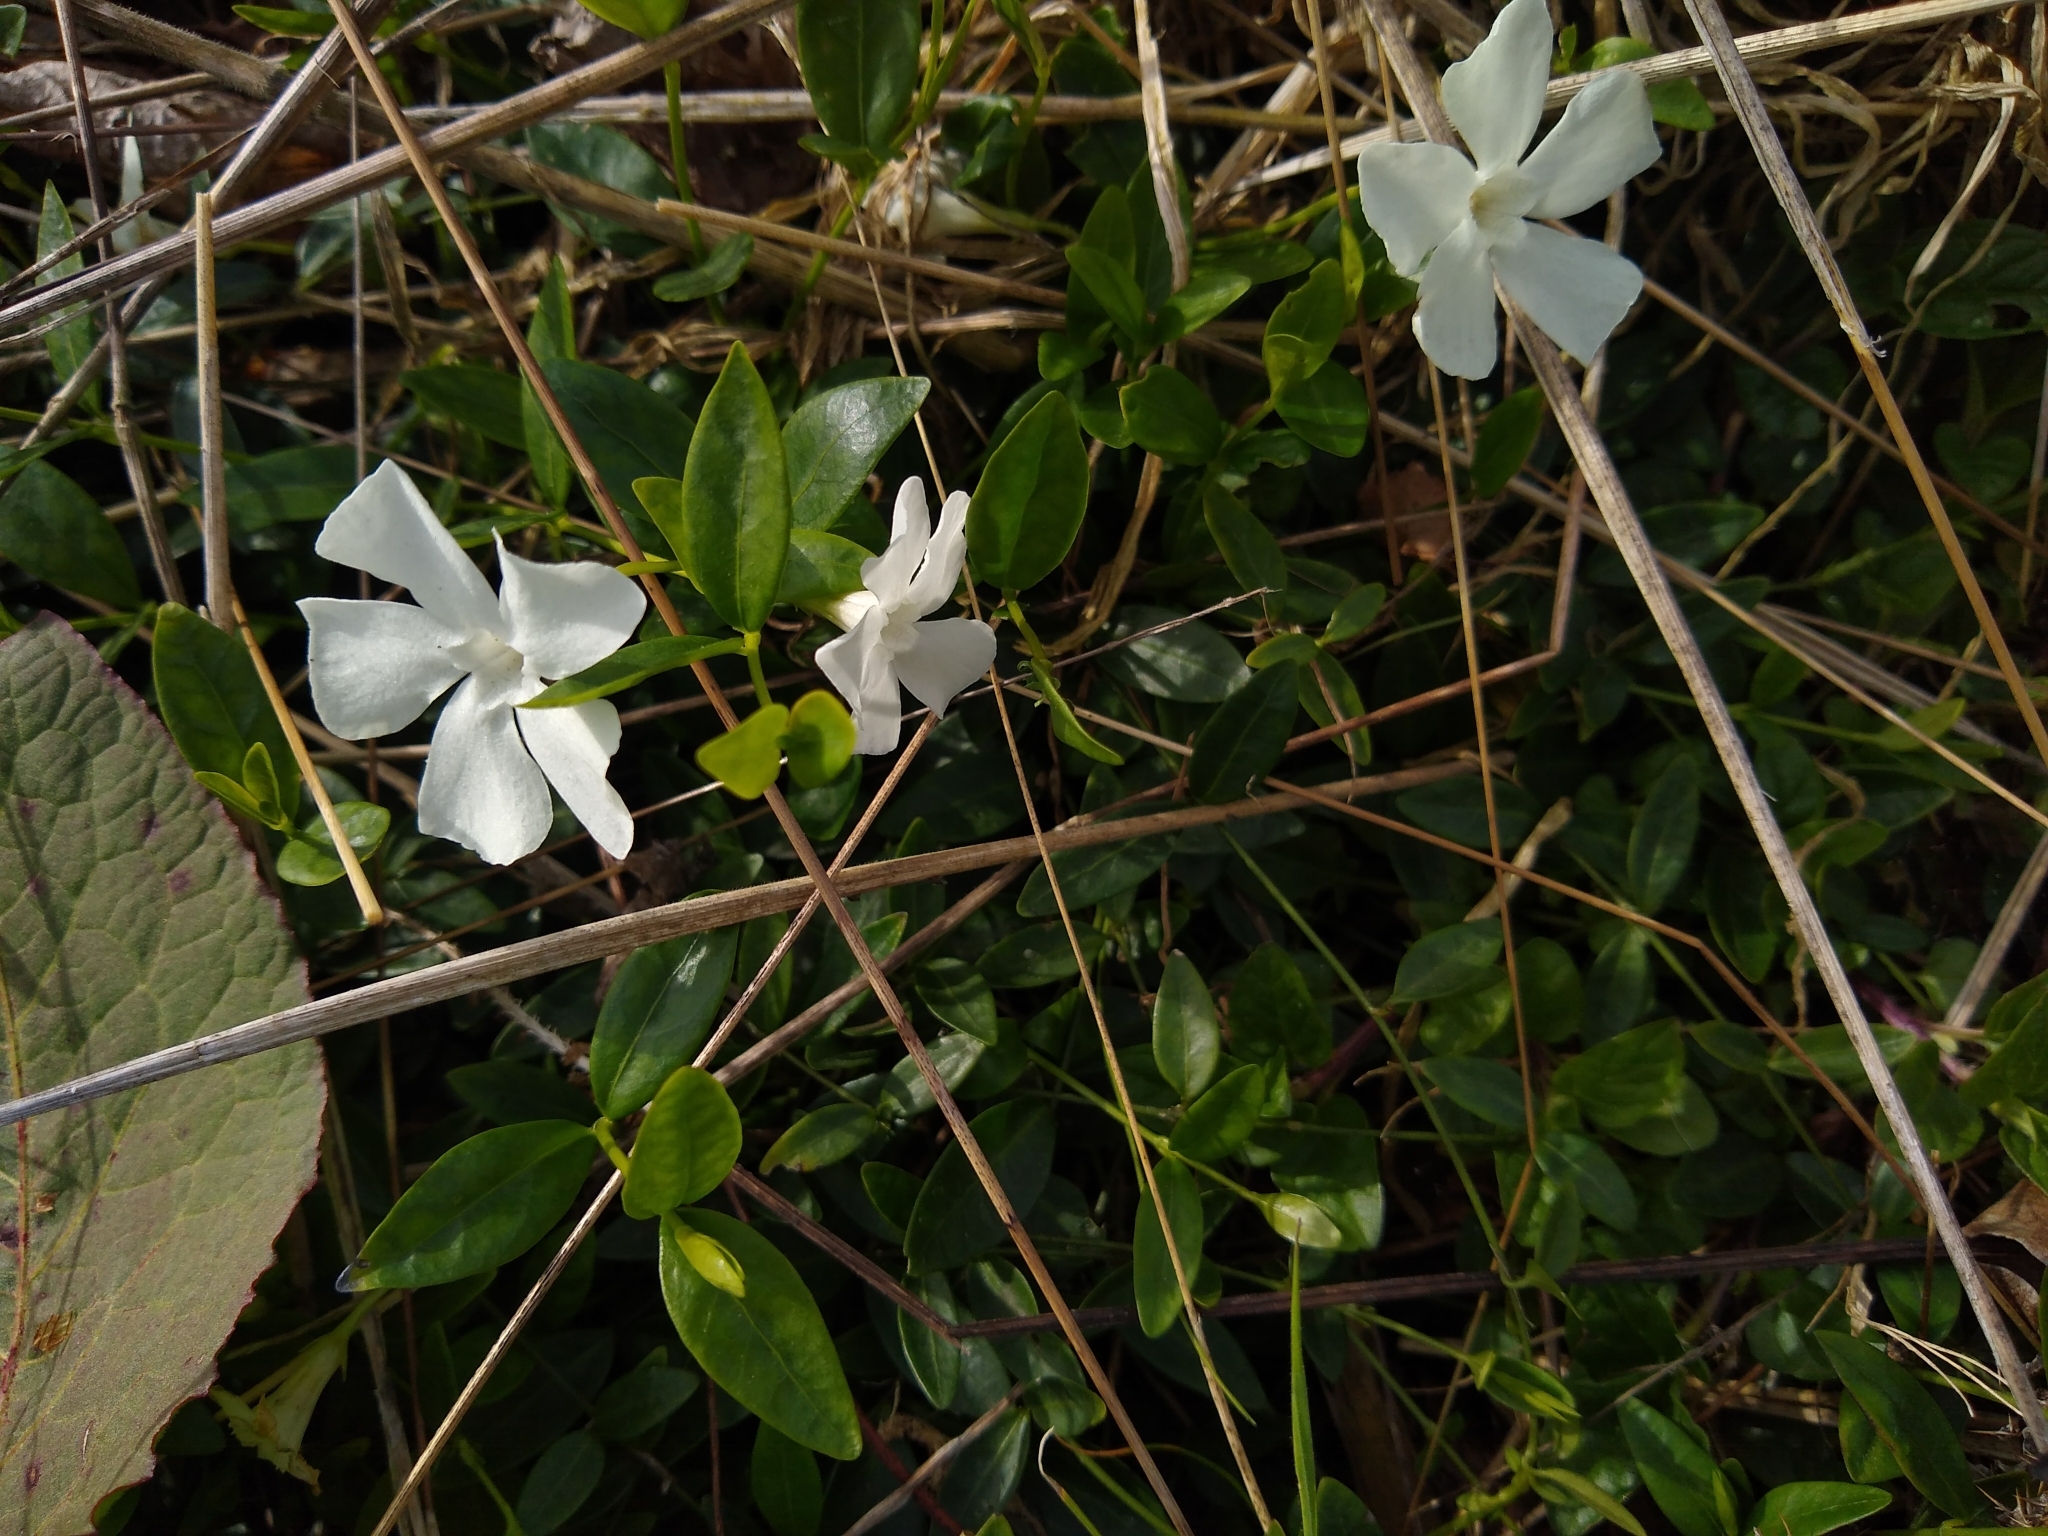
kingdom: Plantae
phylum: Tracheophyta
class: Magnoliopsida
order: Gentianales
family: Apocynaceae
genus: Vinca
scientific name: Vinca minor
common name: Lesser periwinkle
